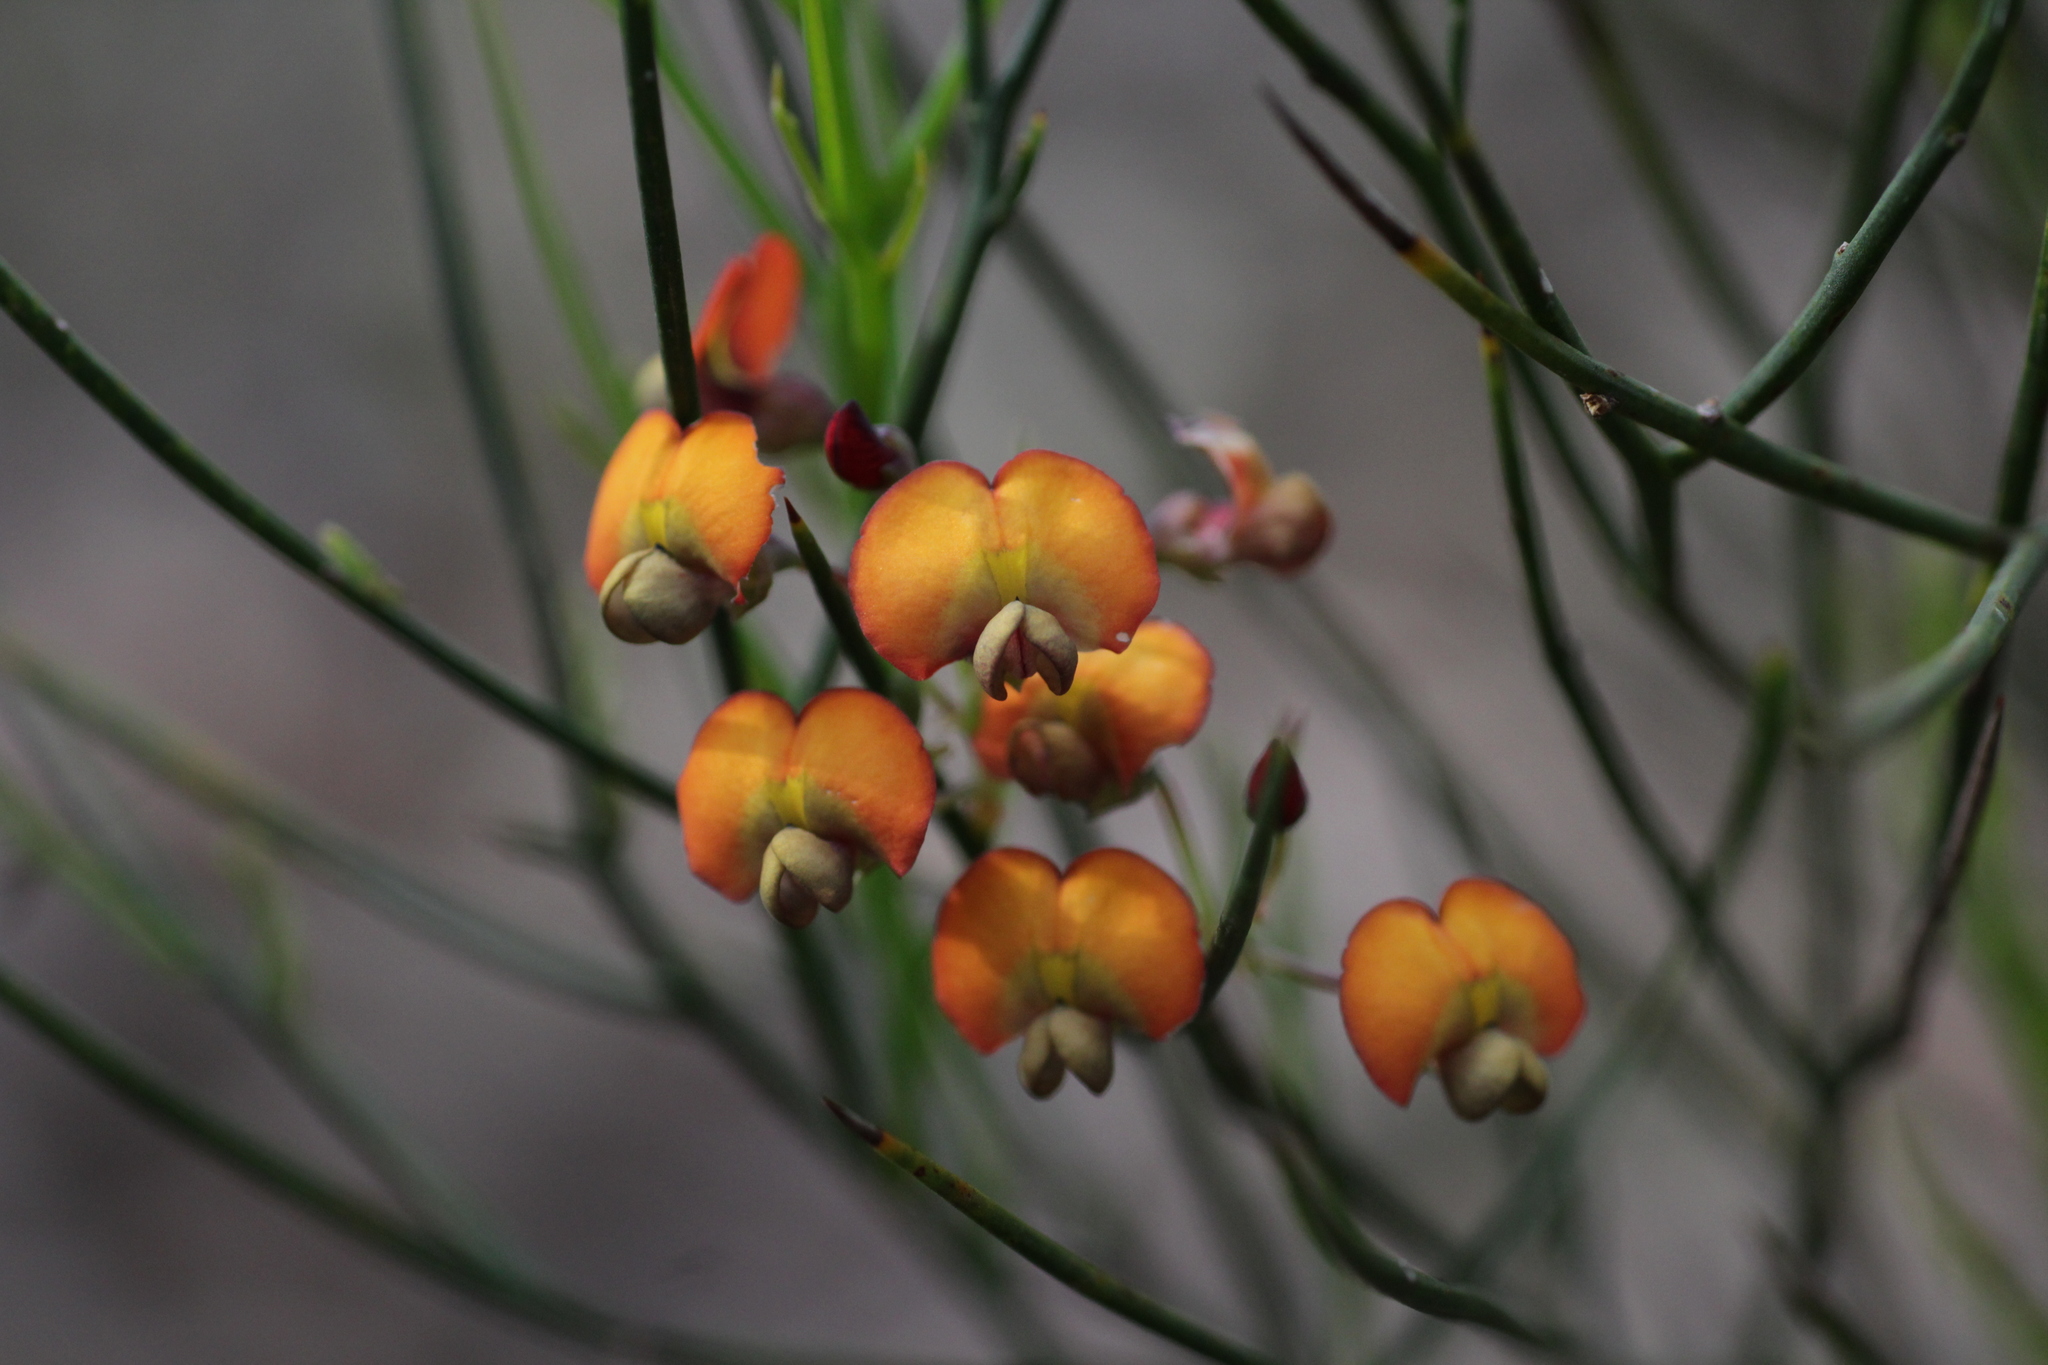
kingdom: Plantae
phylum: Tracheophyta
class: Magnoliopsida
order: Fabales
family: Fabaceae
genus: Daviesia
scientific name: Daviesia horrida
